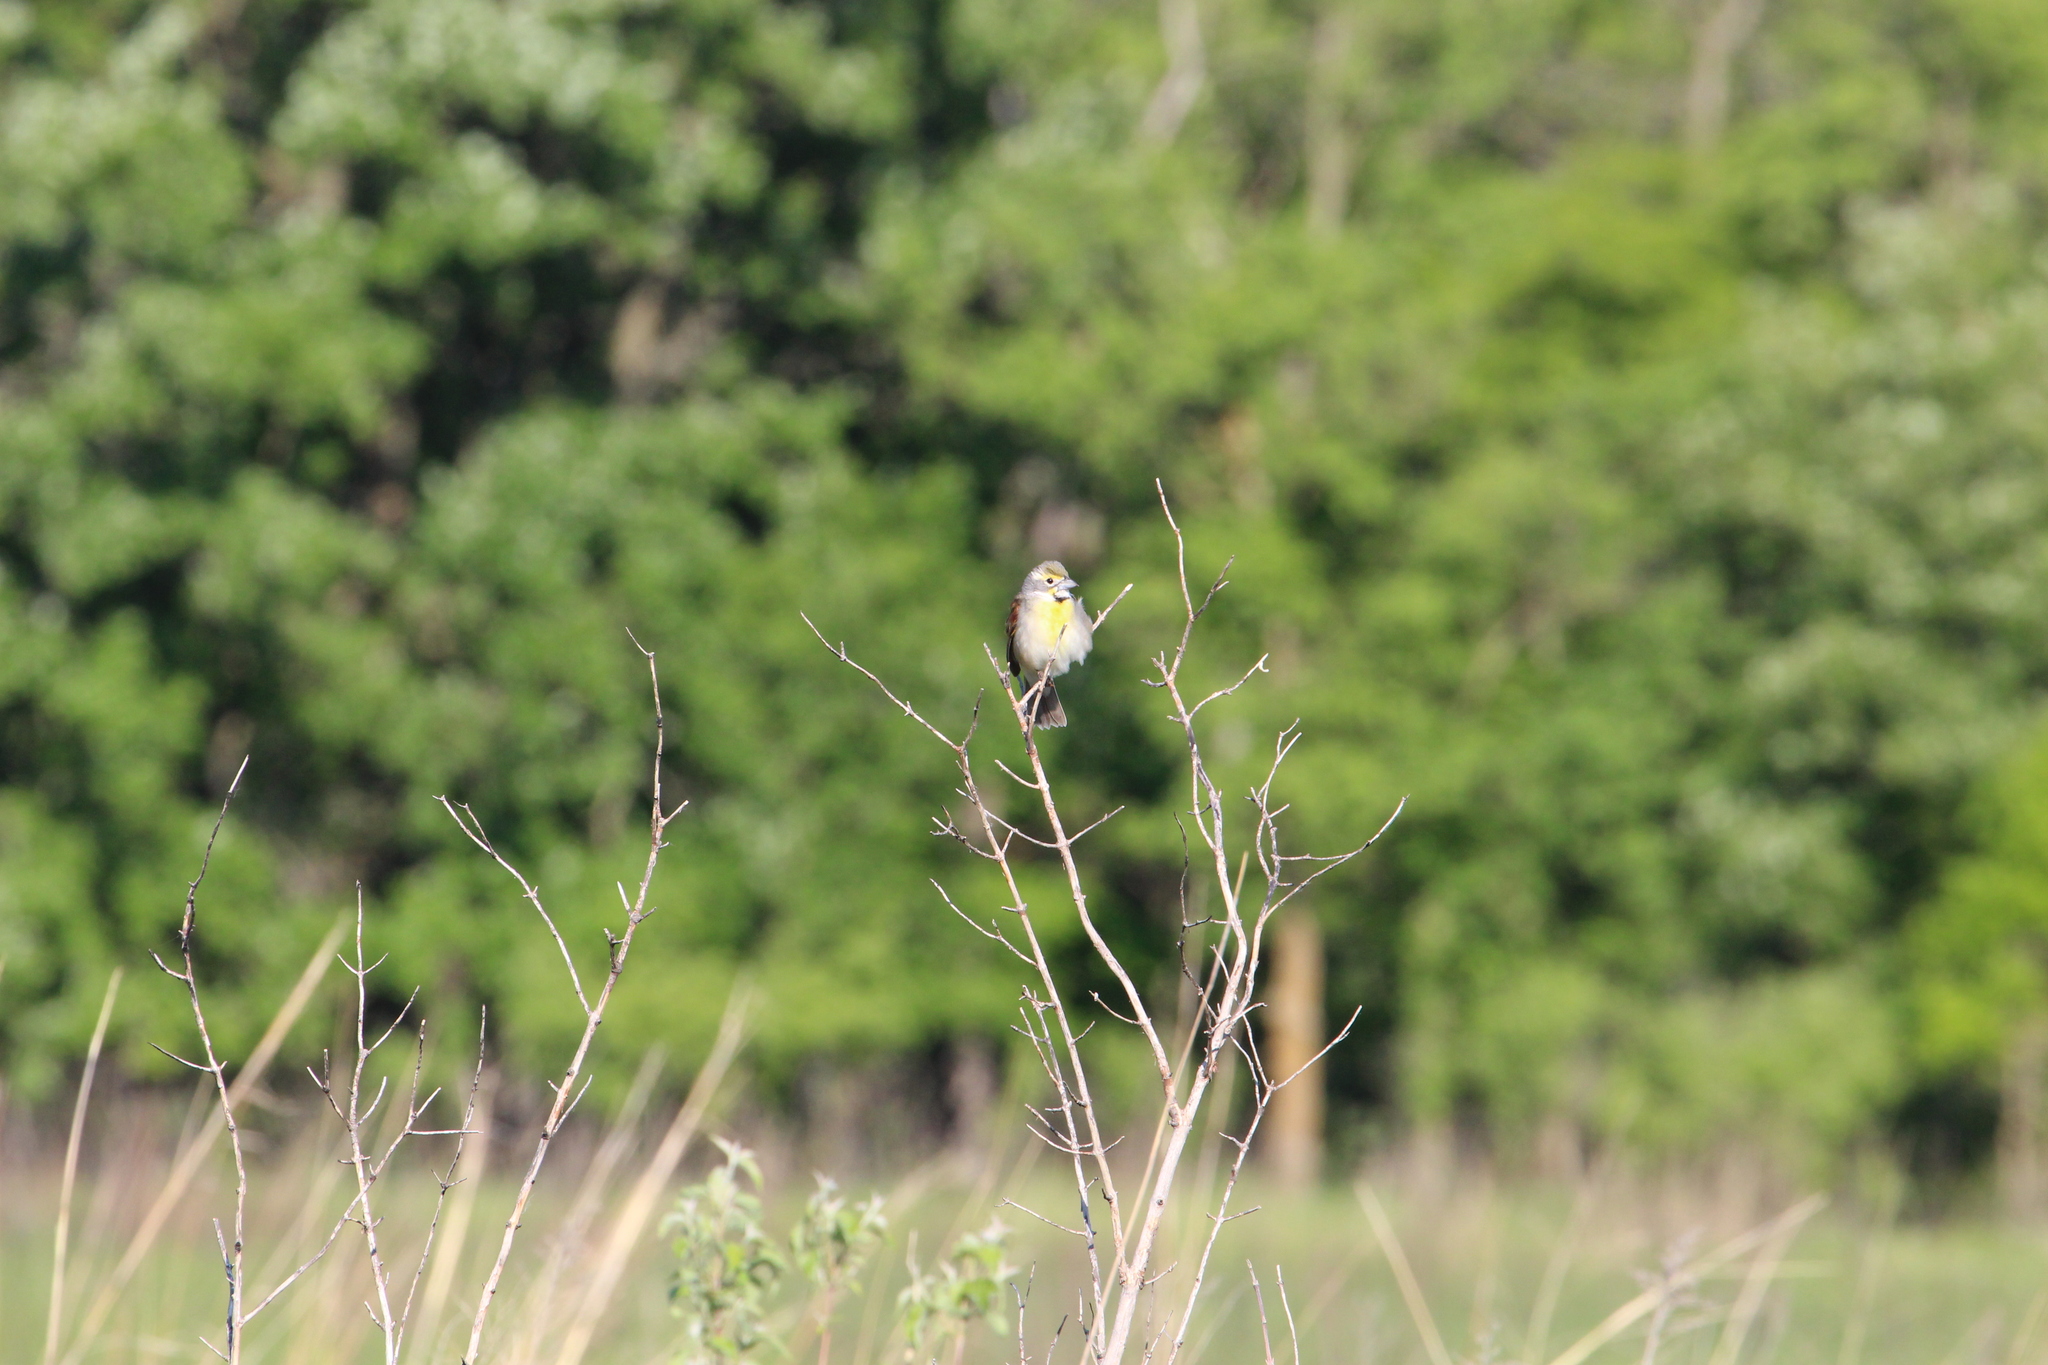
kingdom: Animalia
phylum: Chordata
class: Aves
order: Passeriformes
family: Cardinalidae
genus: Spiza
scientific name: Spiza americana
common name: Dickcissel
